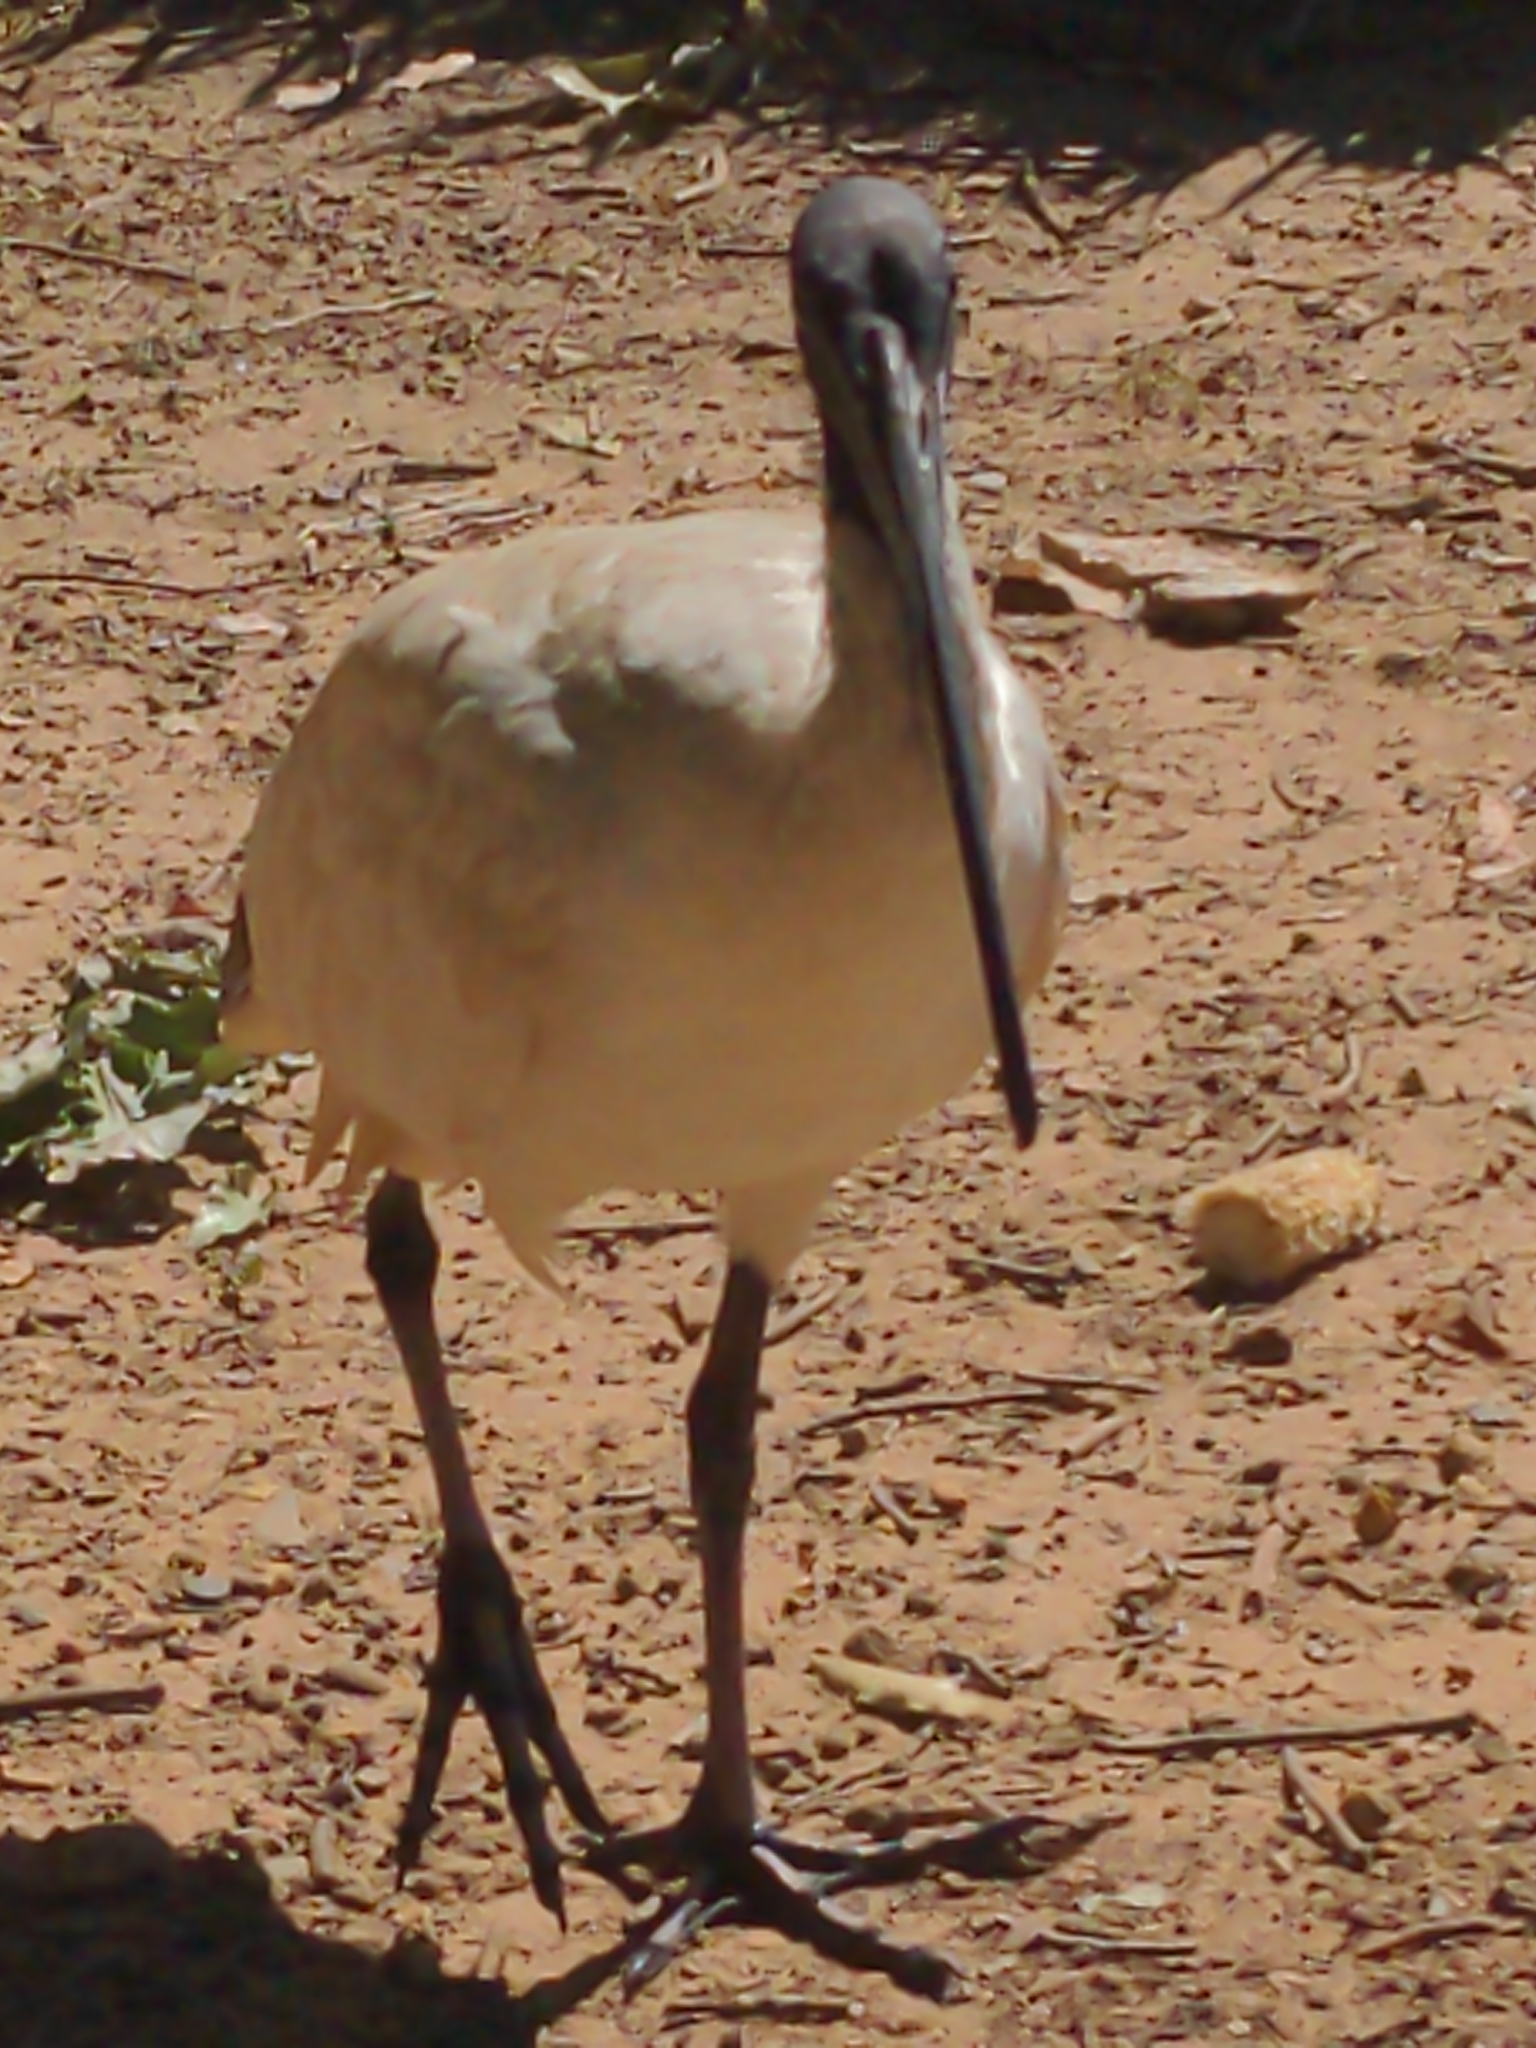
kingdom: Animalia
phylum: Chordata
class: Aves
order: Pelecaniformes
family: Threskiornithidae
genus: Threskiornis
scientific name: Threskiornis molucca
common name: Australian white ibis
